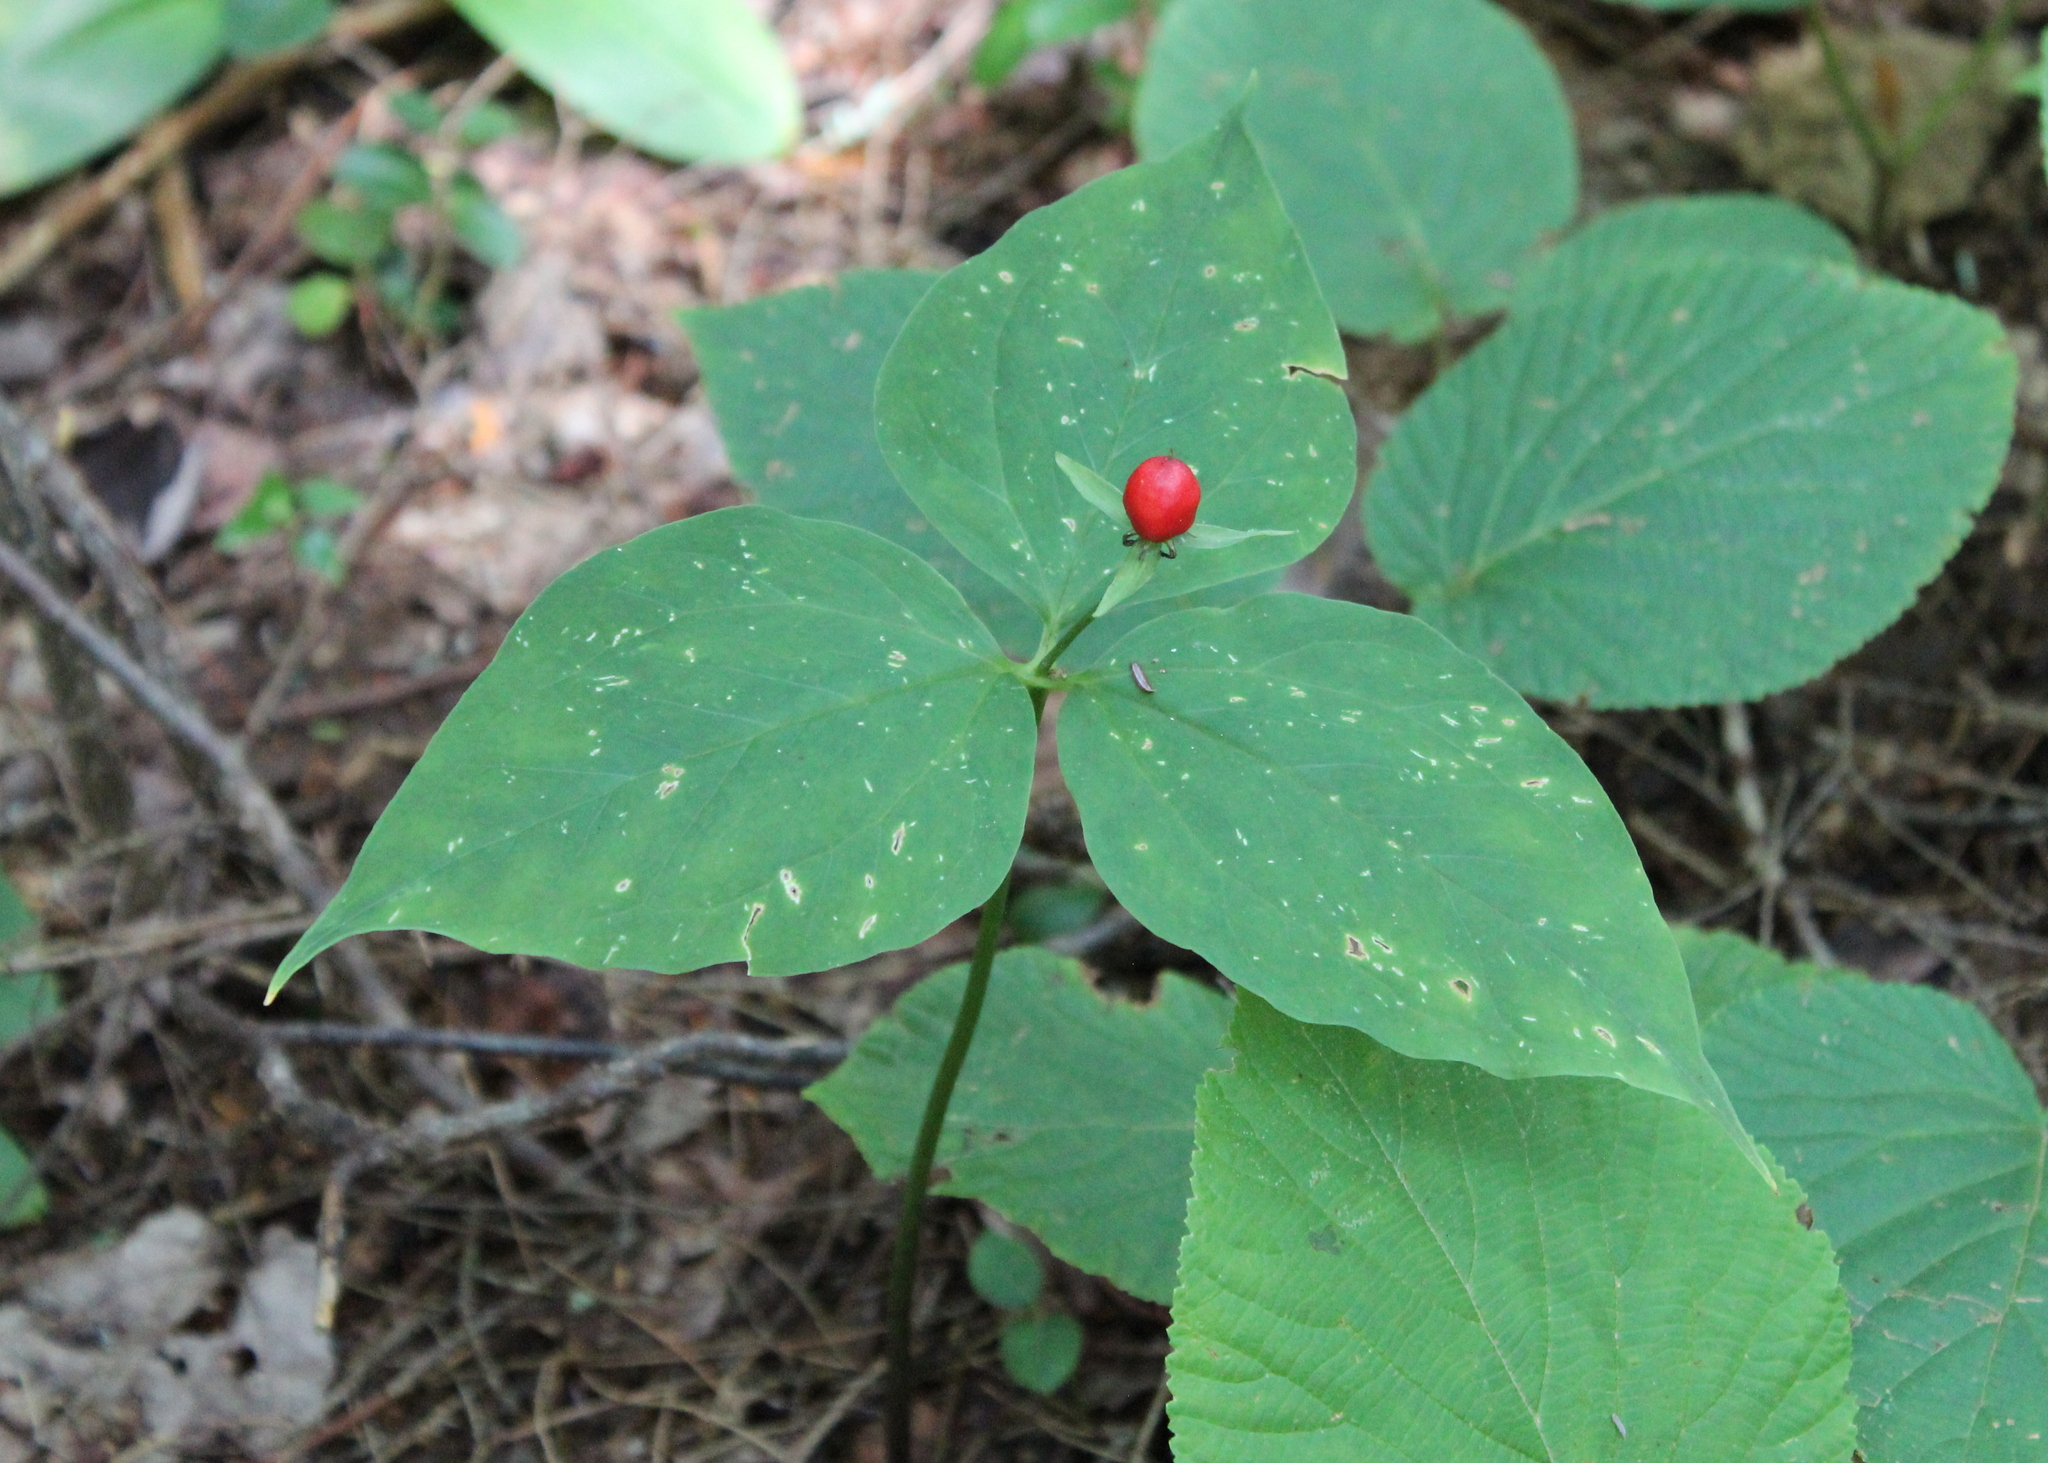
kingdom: Plantae
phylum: Tracheophyta
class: Liliopsida
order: Liliales
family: Melanthiaceae
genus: Trillium
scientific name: Trillium undulatum
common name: Paint trillium
